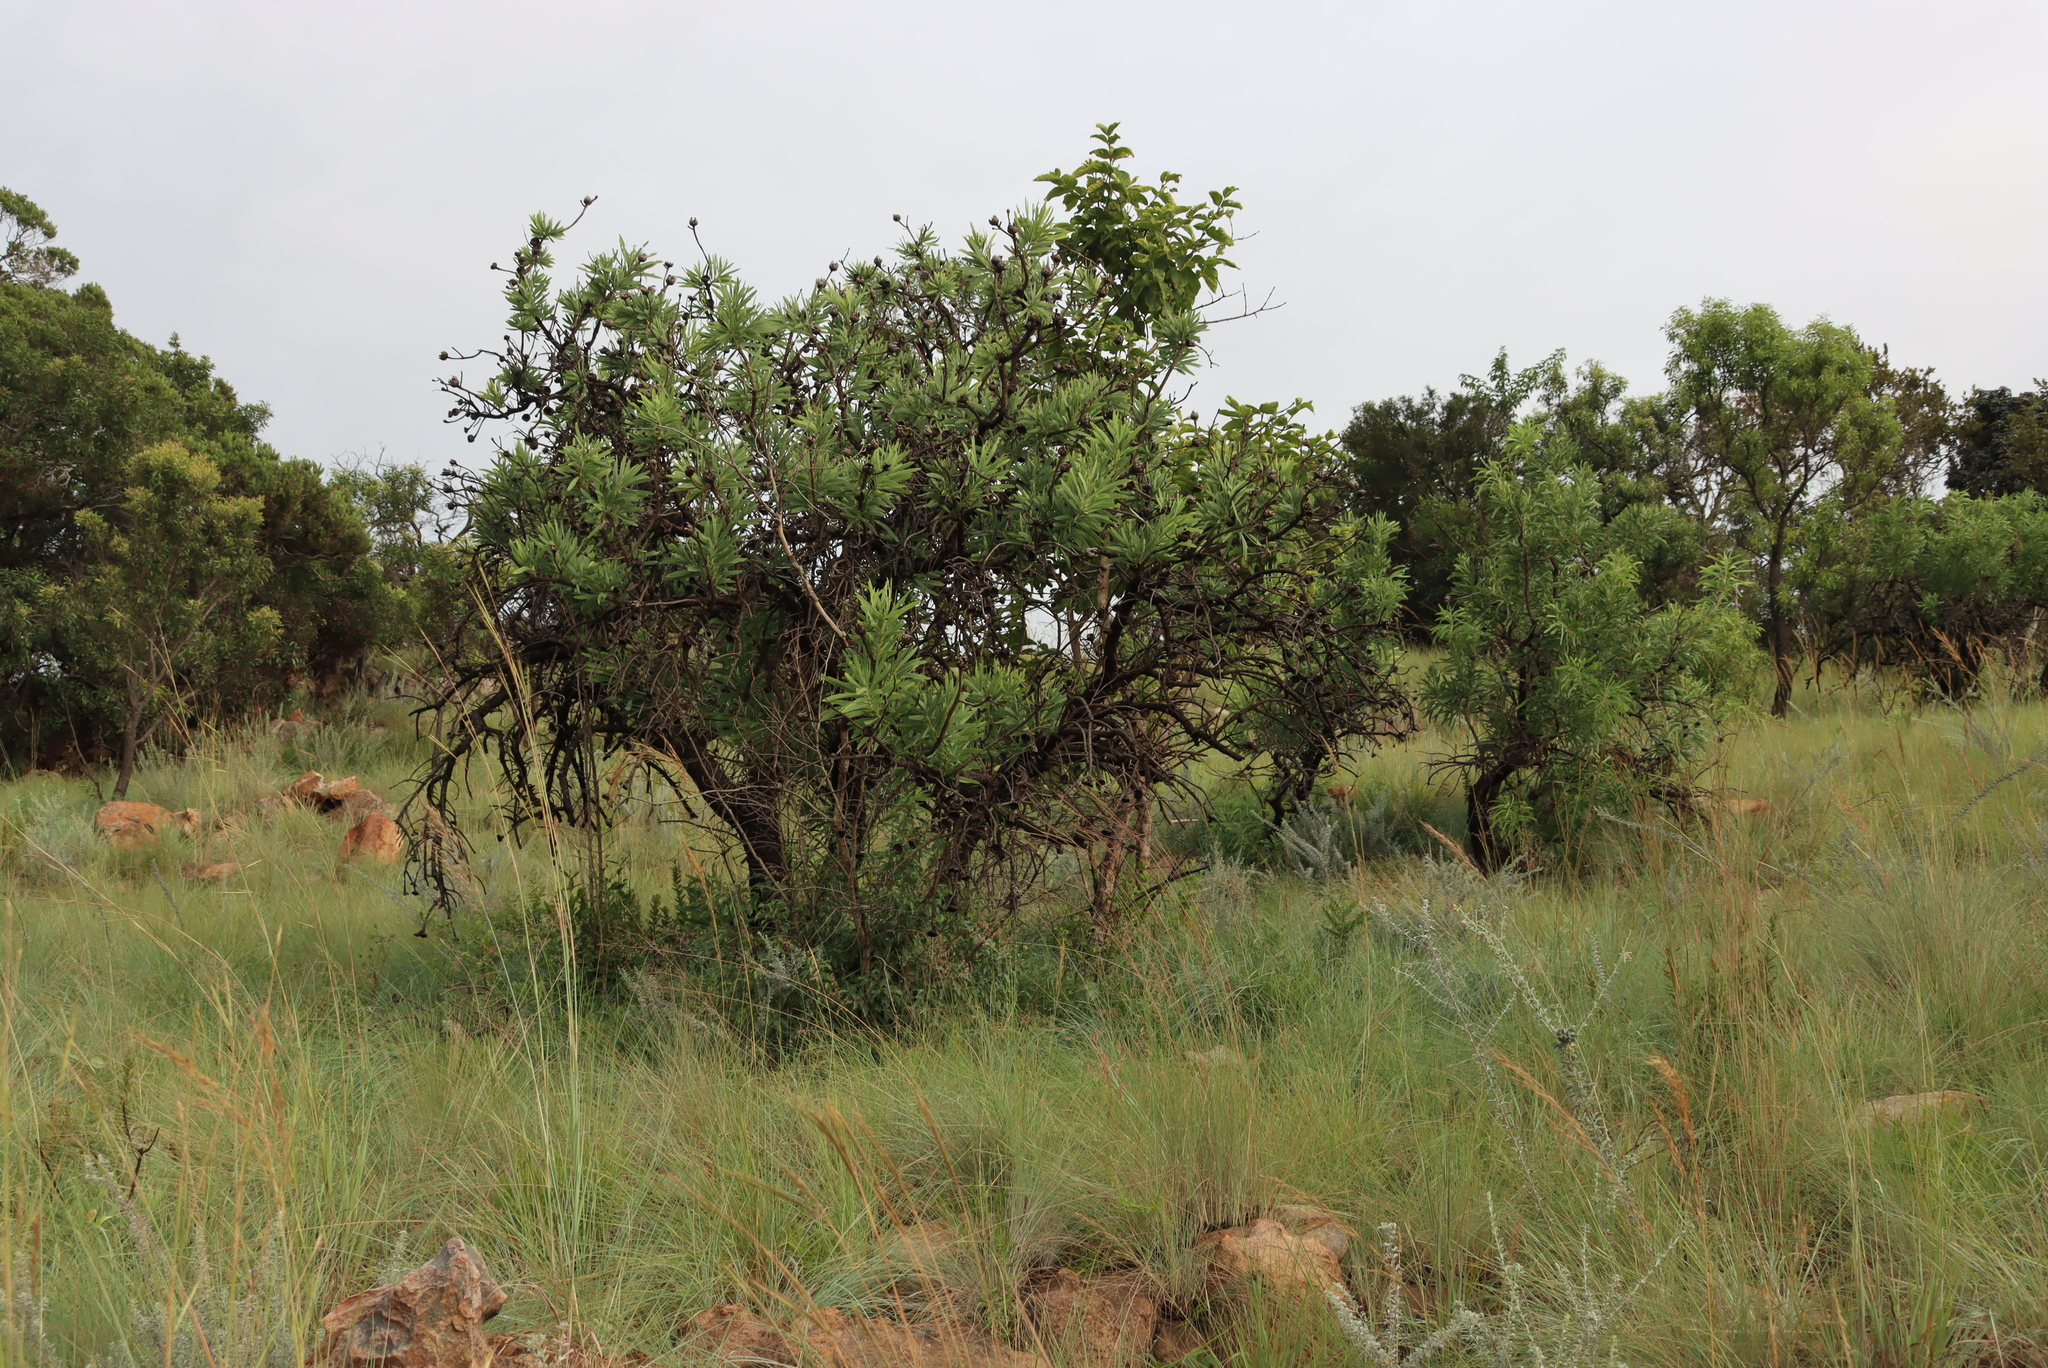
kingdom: Plantae
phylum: Tracheophyta
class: Magnoliopsida
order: Proteales
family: Proteaceae
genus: Protea
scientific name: Protea caffra
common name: Common sugarbush
